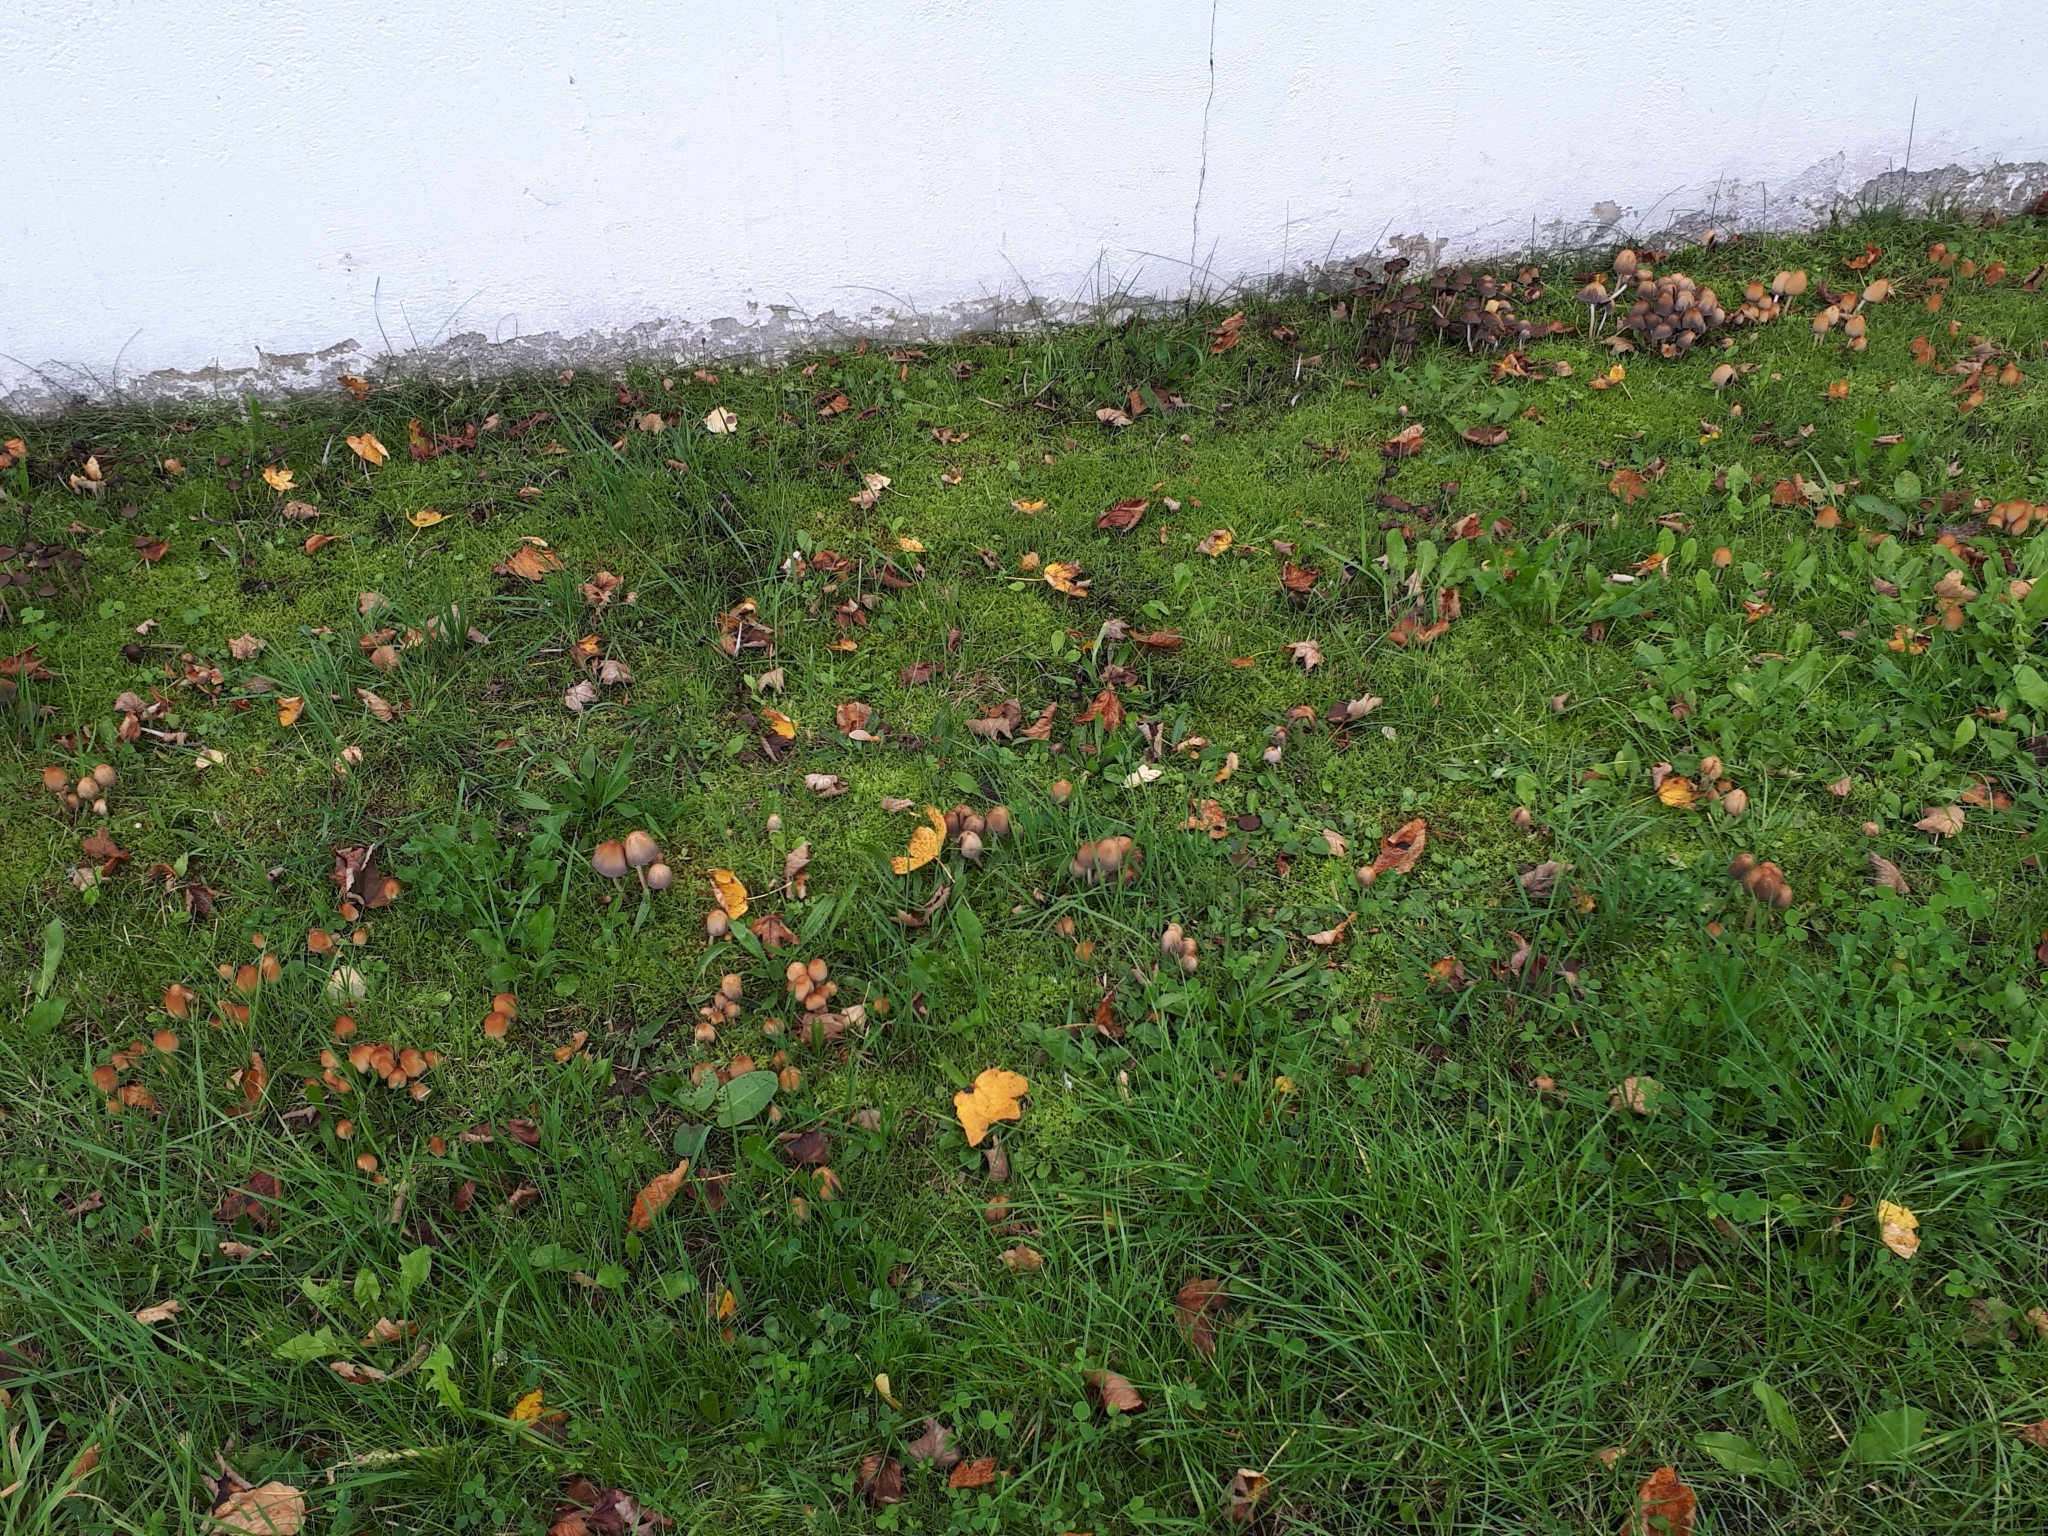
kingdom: Fungi
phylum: Basidiomycota
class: Agaricomycetes
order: Agaricales
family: Psathyrellaceae
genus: Coprinellus
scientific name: Coprinellus micaceus
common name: Glistening ink-cap
